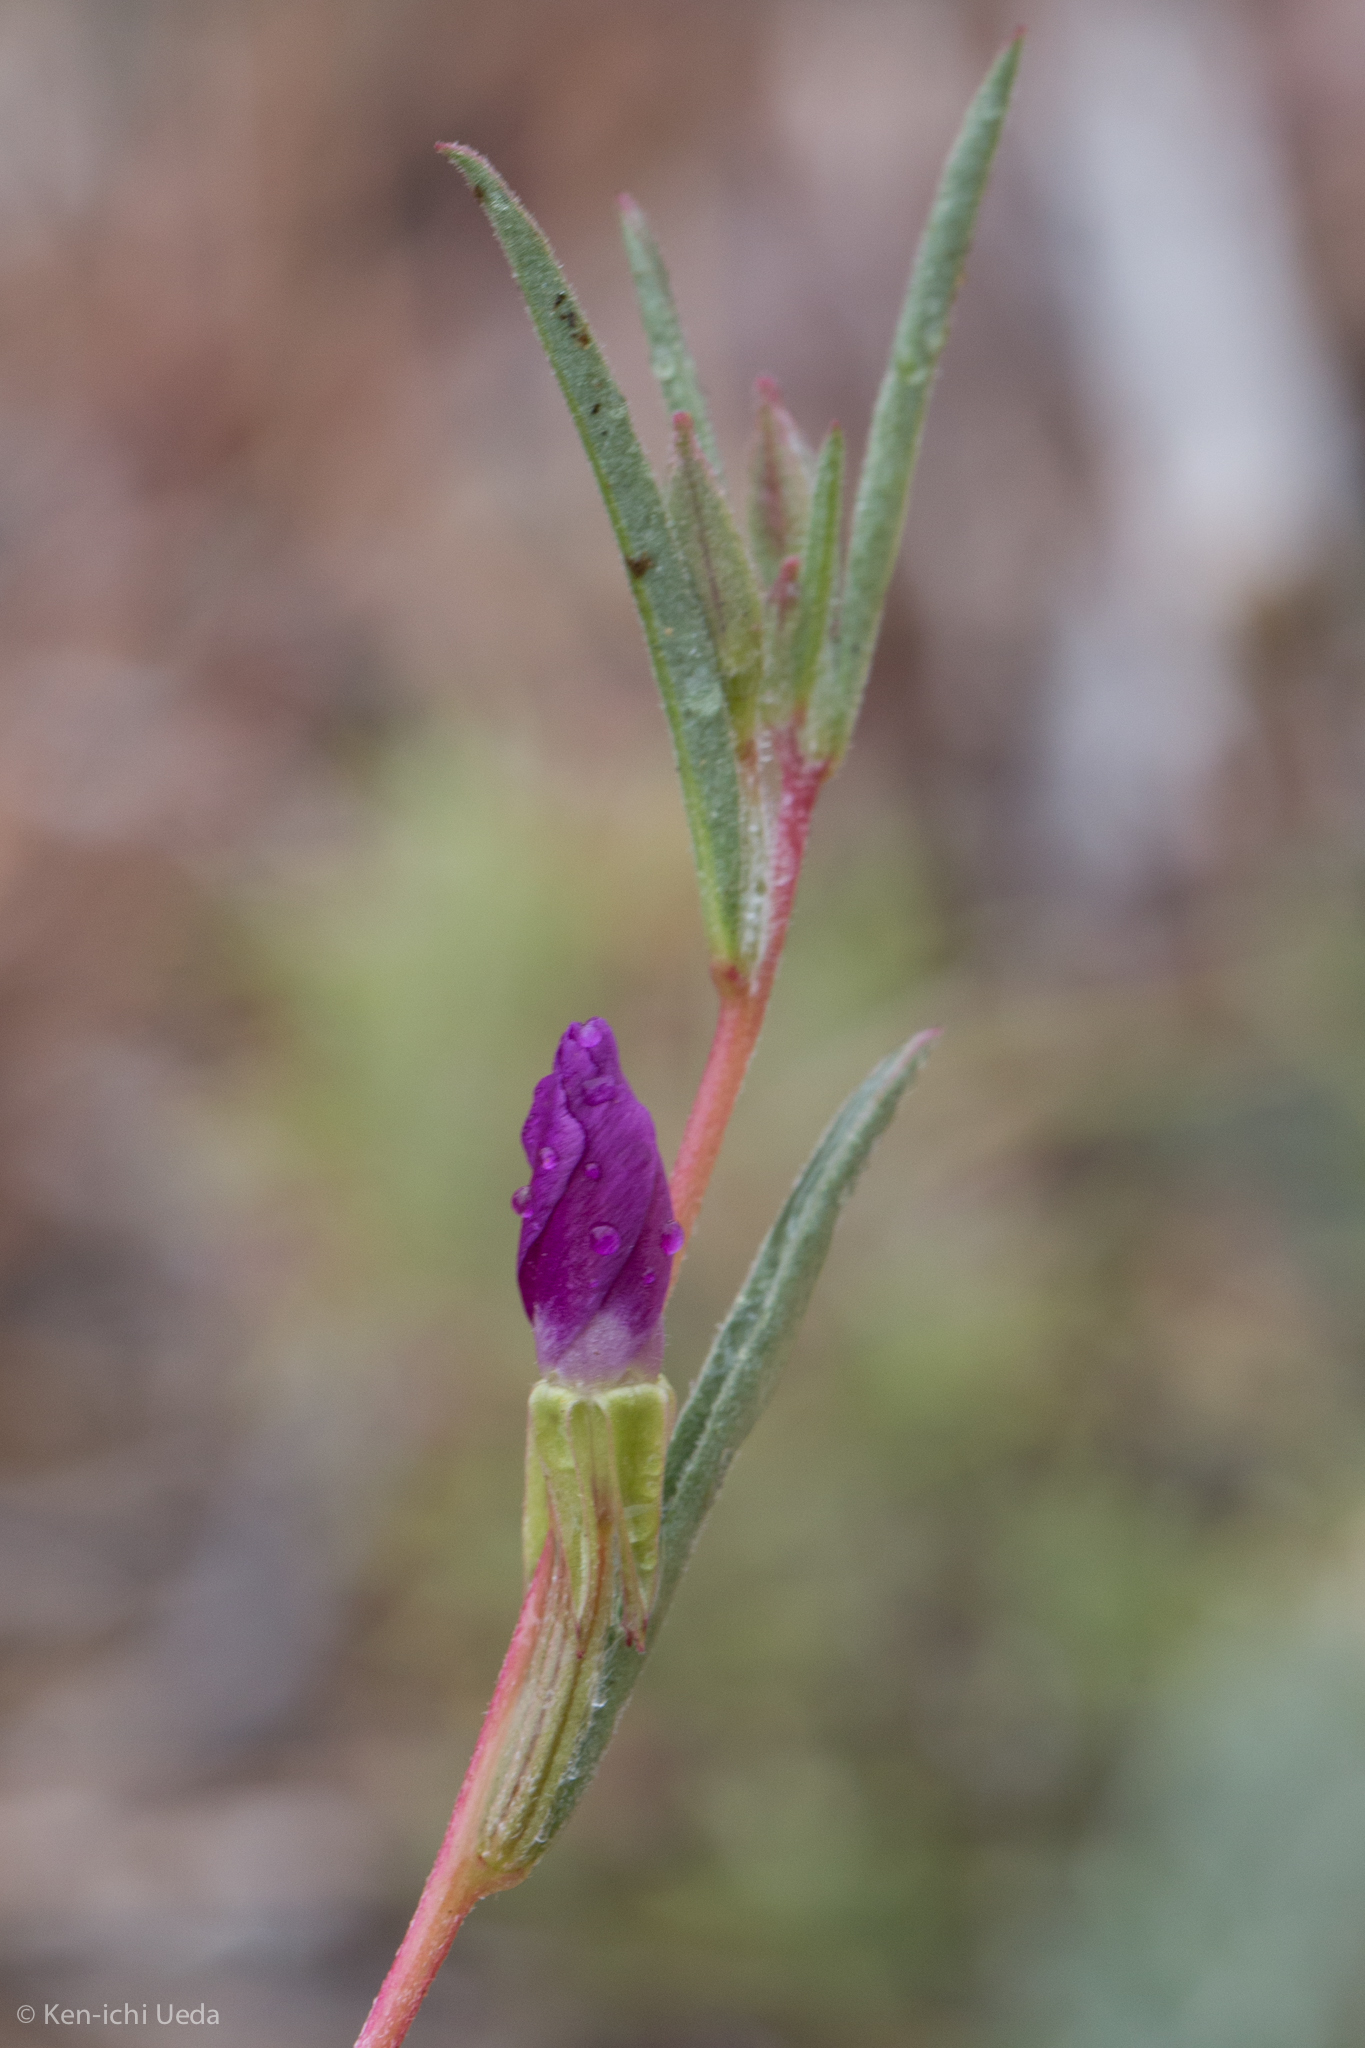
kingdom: Plantae
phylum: Tracheophyta
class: Magnoliopsida
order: Myrtales
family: Onagraceae
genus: Clarkia
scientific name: Clarkia purpurea
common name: Purple clarkia
